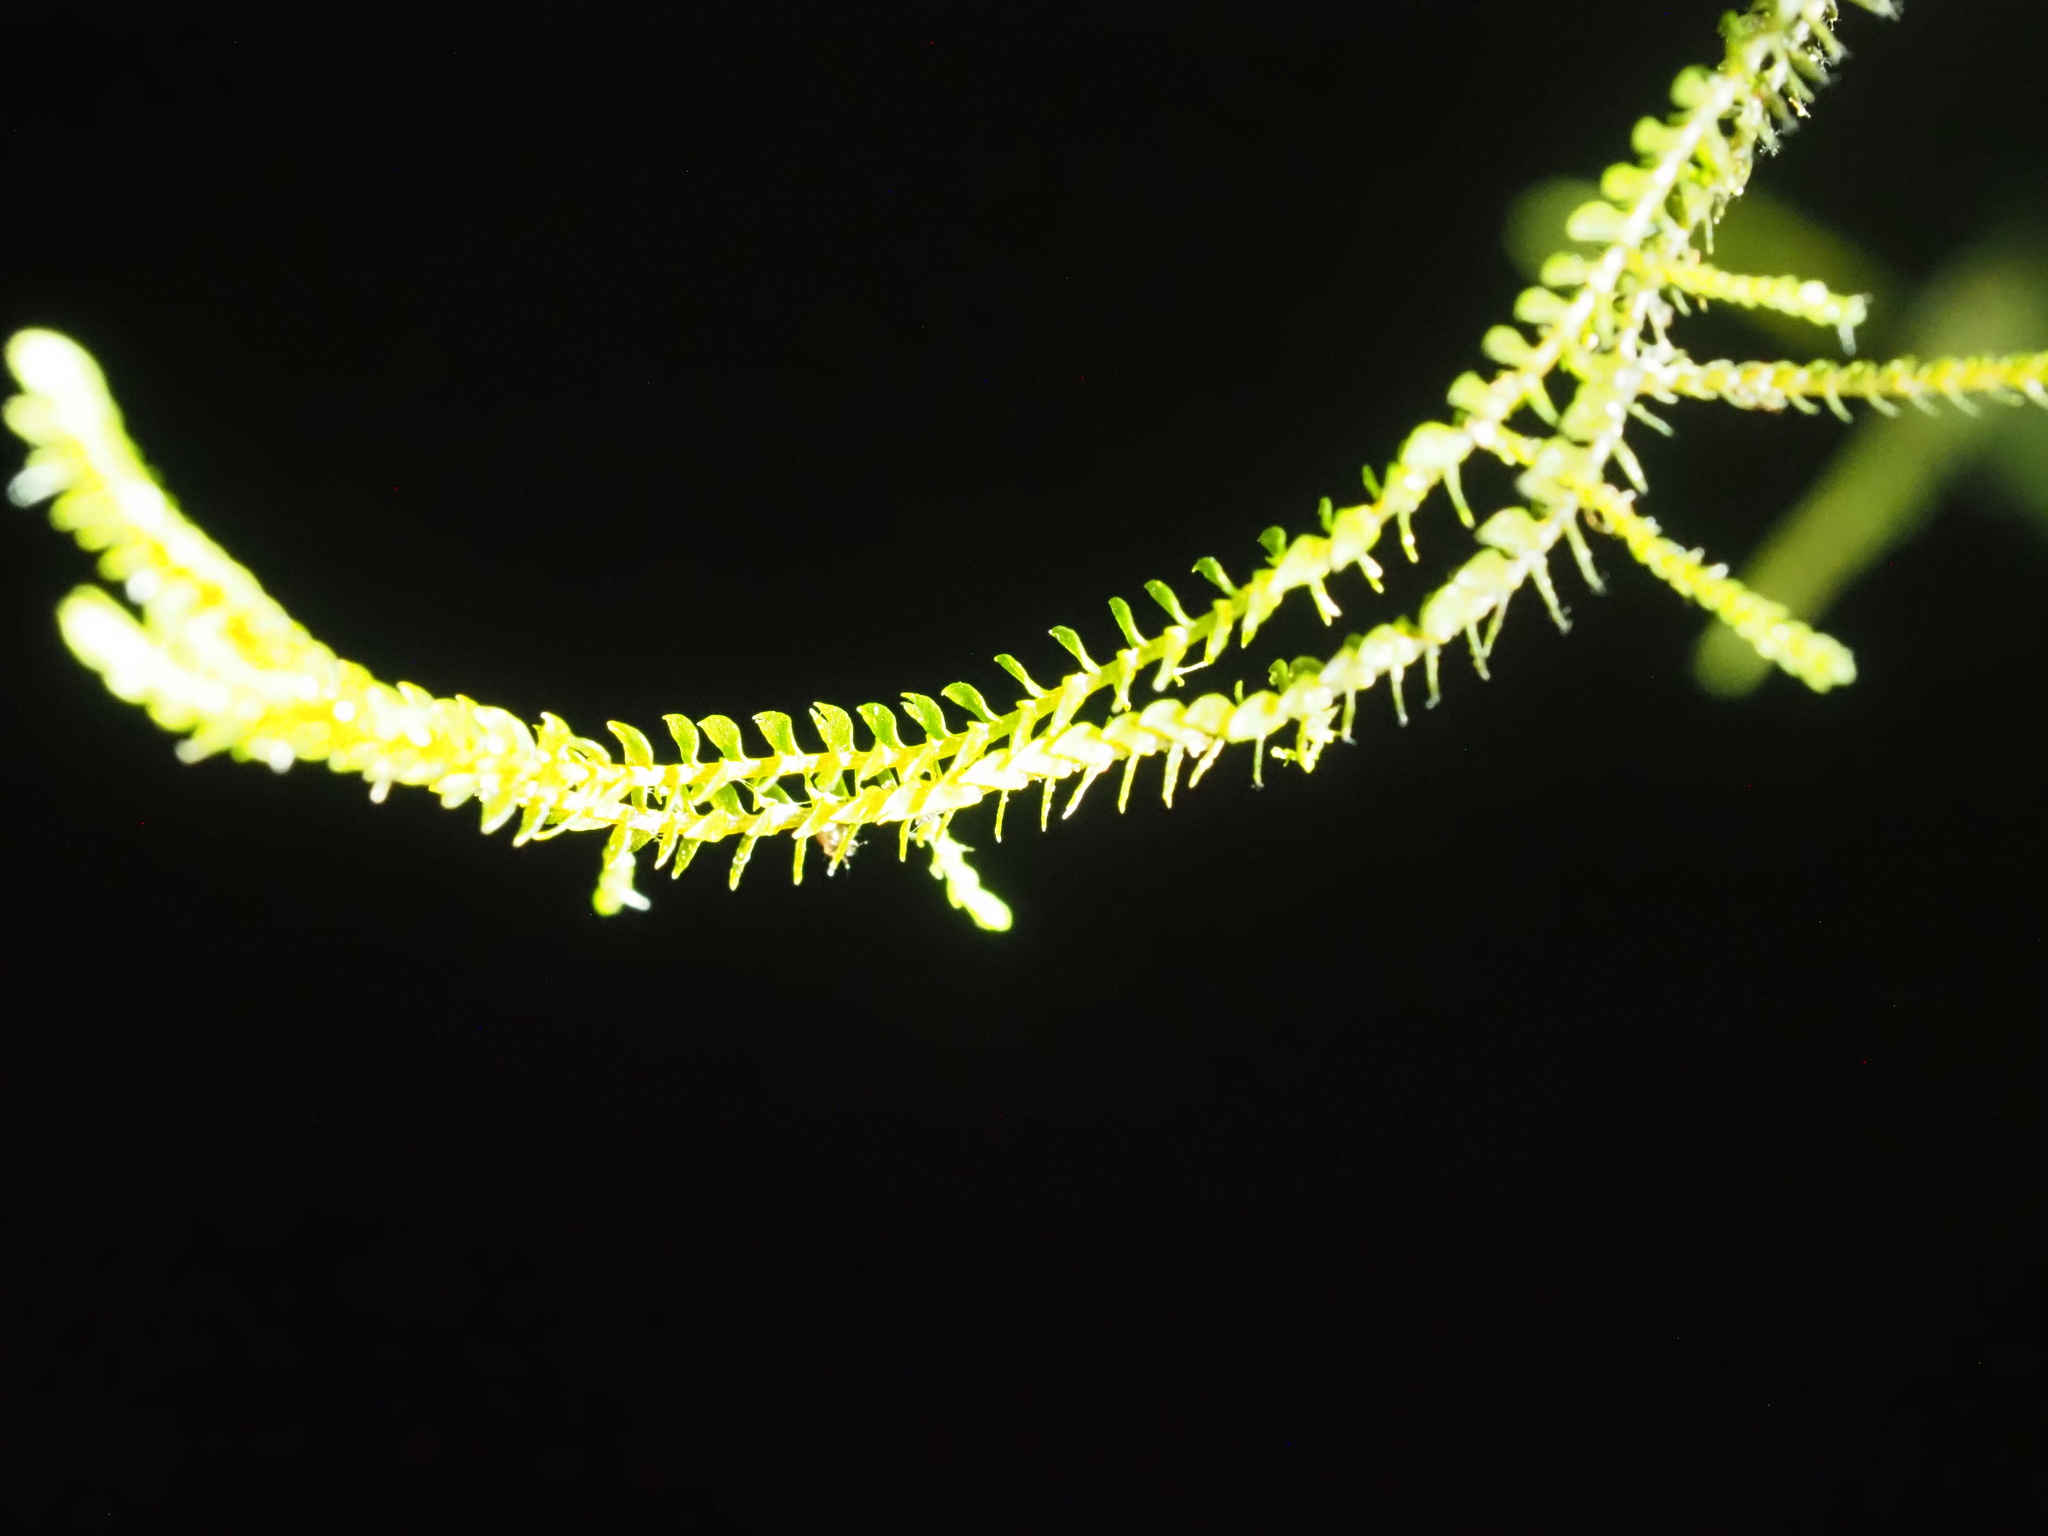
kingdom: Plantae
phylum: Marchantiophyta
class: Jungermanniopsida
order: Jungermanniales
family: Herbertaceae
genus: Herbertus
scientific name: Herbertus gracilis
